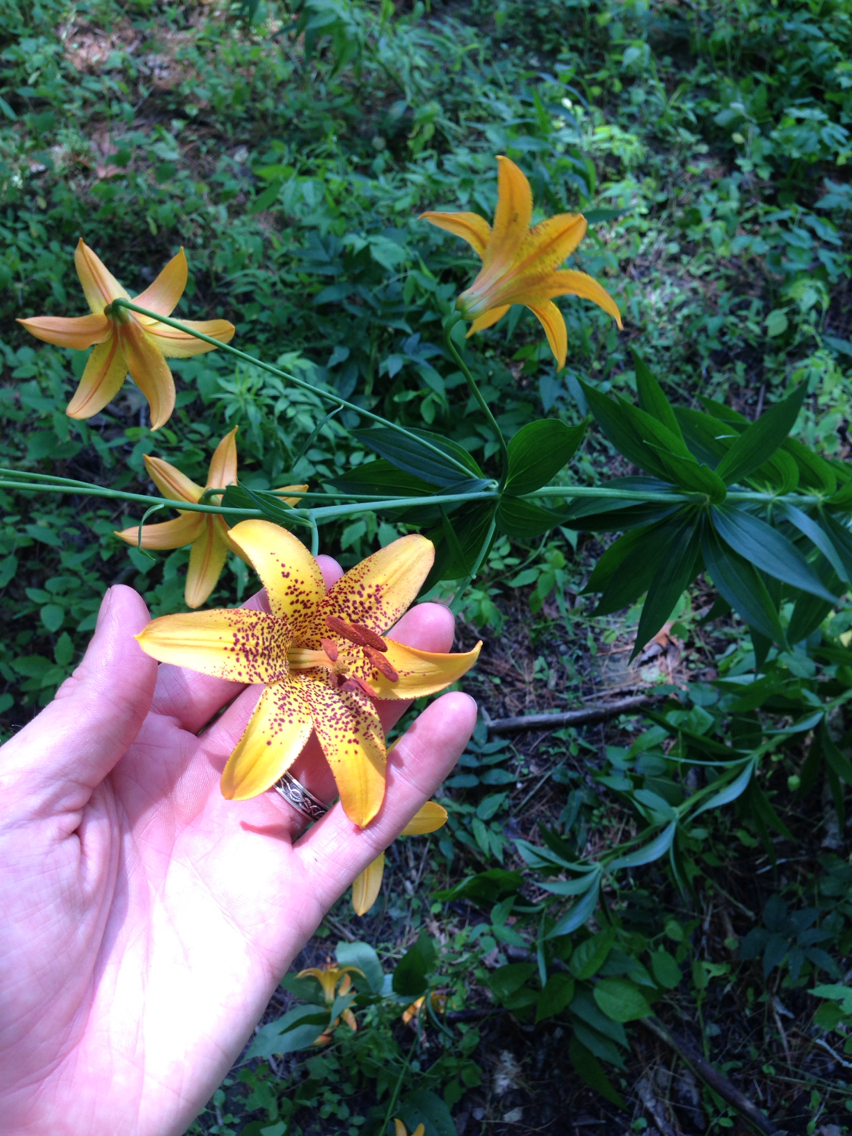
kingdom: Plantae
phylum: Tracheophyta
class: Liliopsida
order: Liliales
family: Liliaceae
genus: Lilium
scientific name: Lilium canadense
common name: Canada lily
